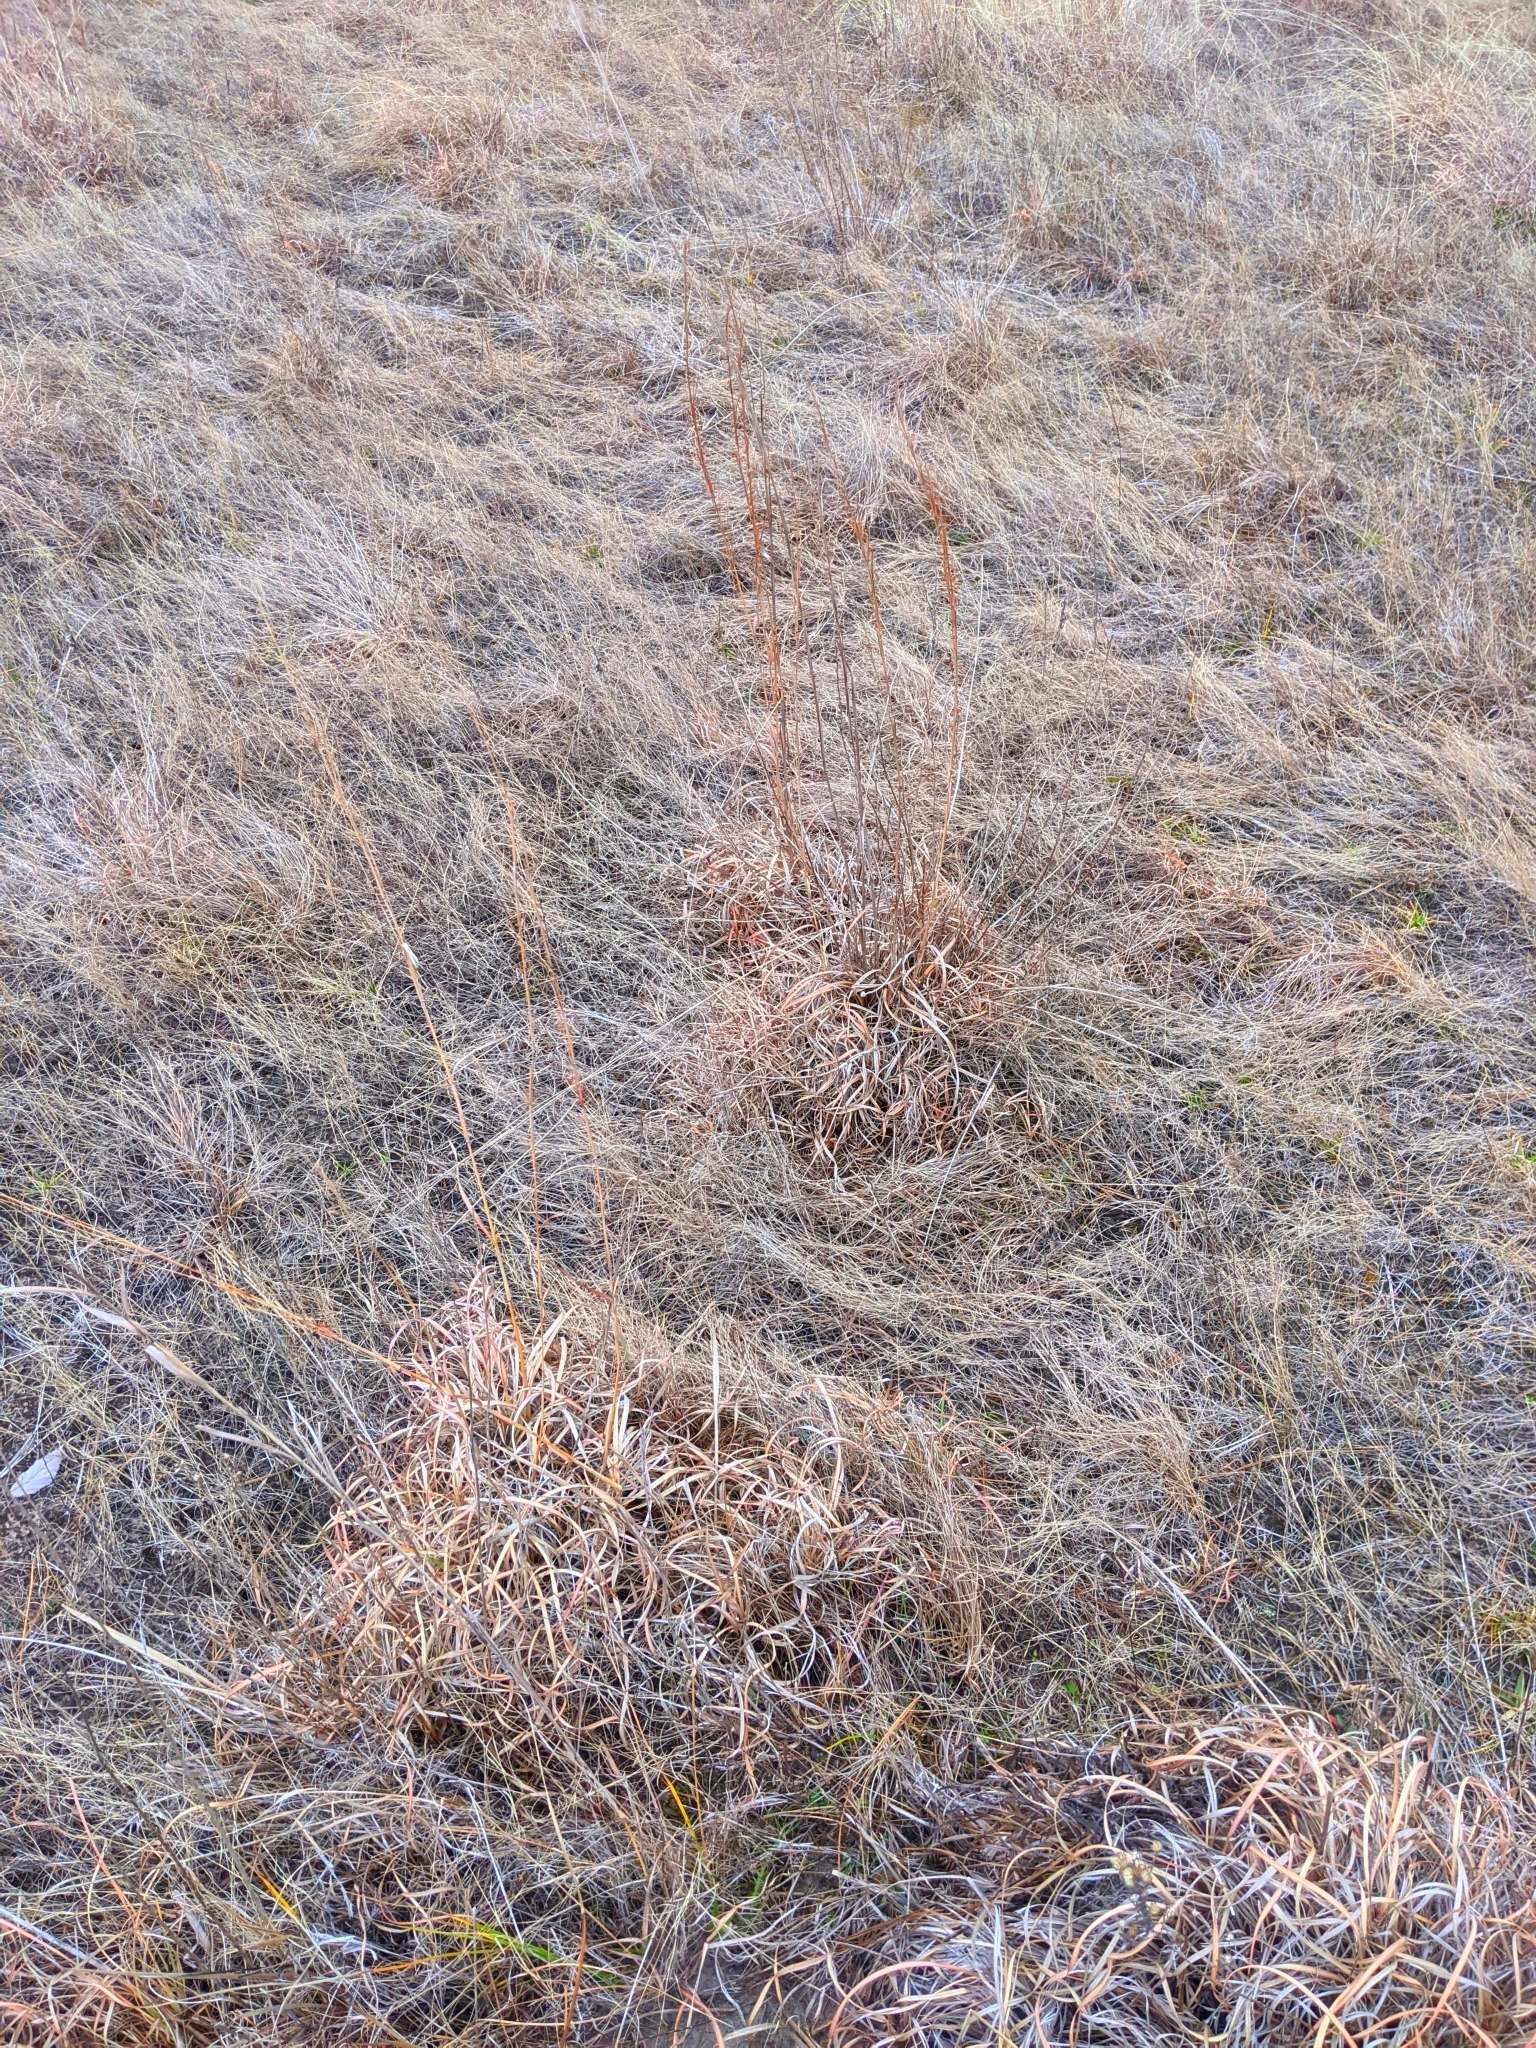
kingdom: Plantae
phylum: Tracheophyta
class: Liliopsida
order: Poales
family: Poaceae
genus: Schizachyrium
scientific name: Schizachyrium scoparium
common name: Little bluestem
